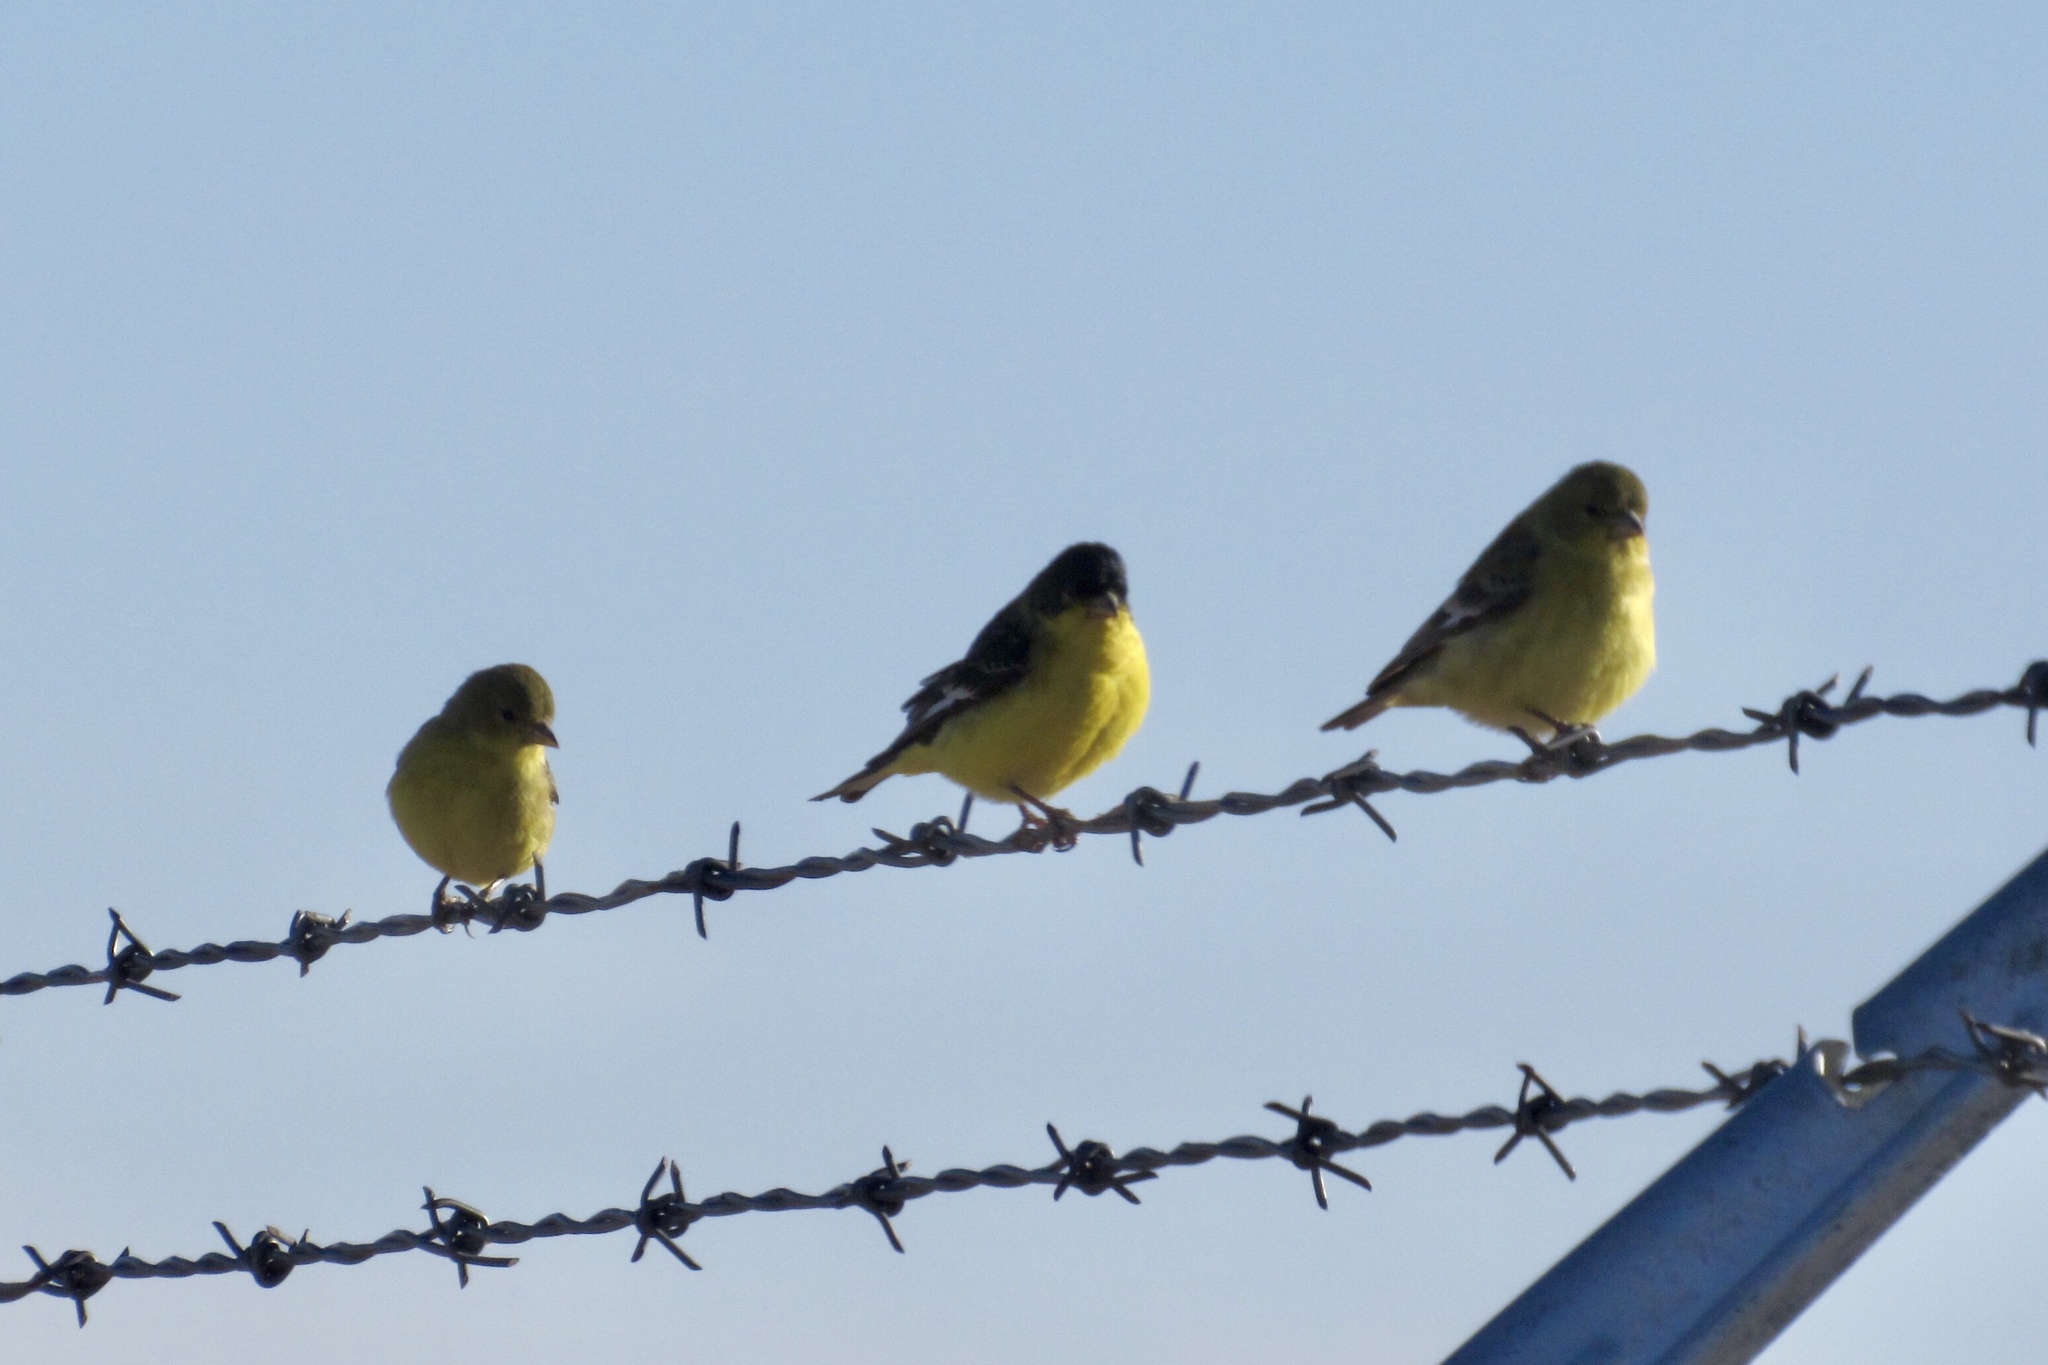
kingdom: Animalia
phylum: Chordata
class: Aves
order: Passeriformes
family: Fringillidae
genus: Spinus
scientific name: Spinus psaltria
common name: Lesser goldfinch
